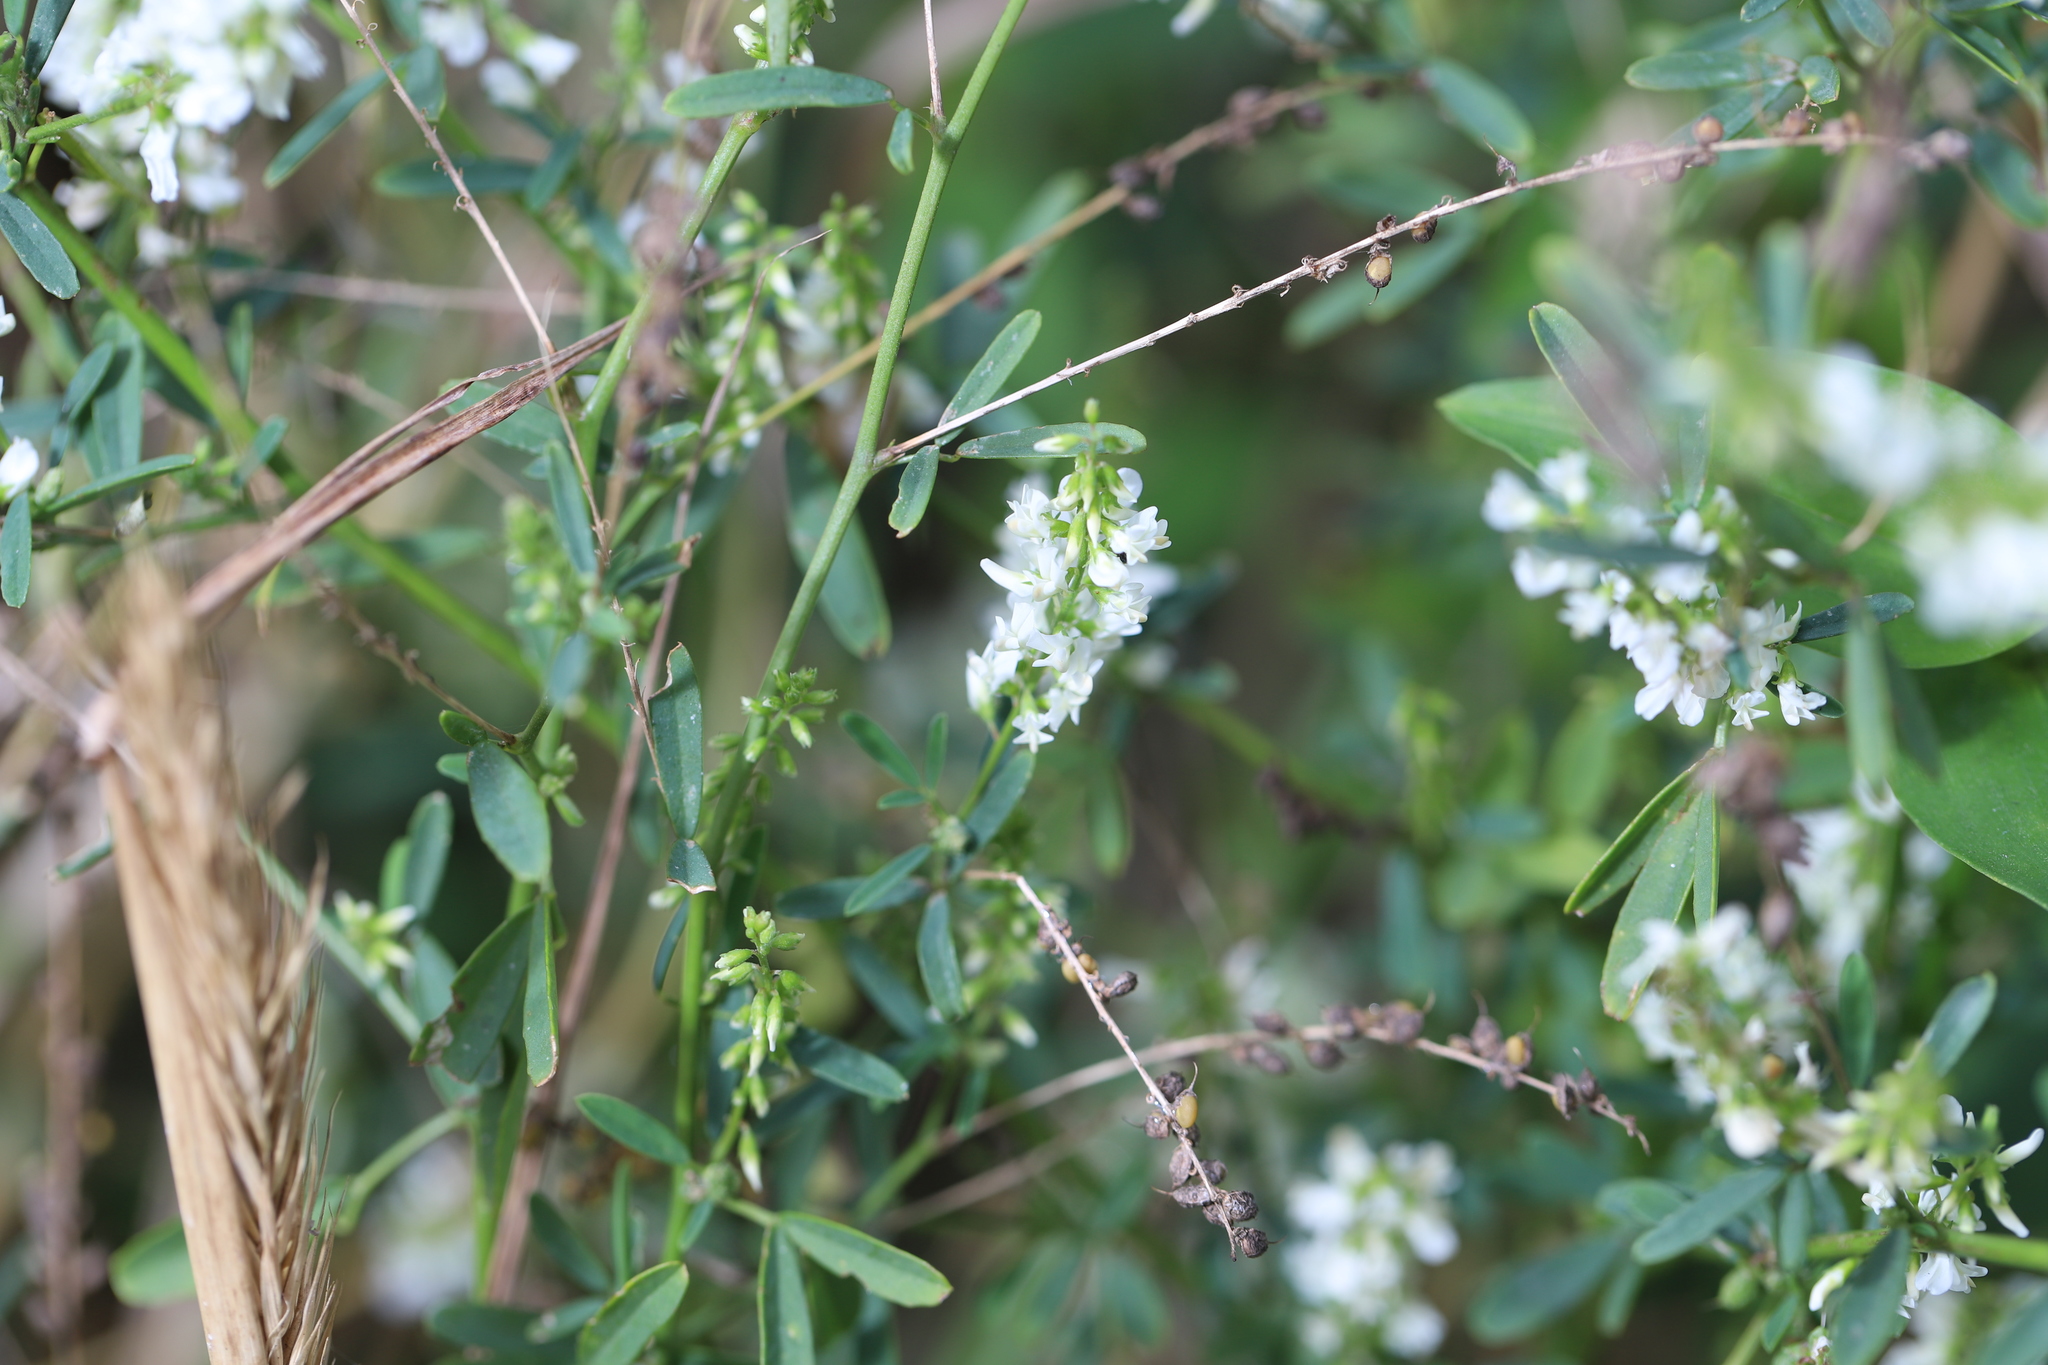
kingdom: Plantae
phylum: Tracheophyta
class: Magnoliopsida
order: Fabales
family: Fabaceae
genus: Melilotus
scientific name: Melilotus albus
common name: White melilot
